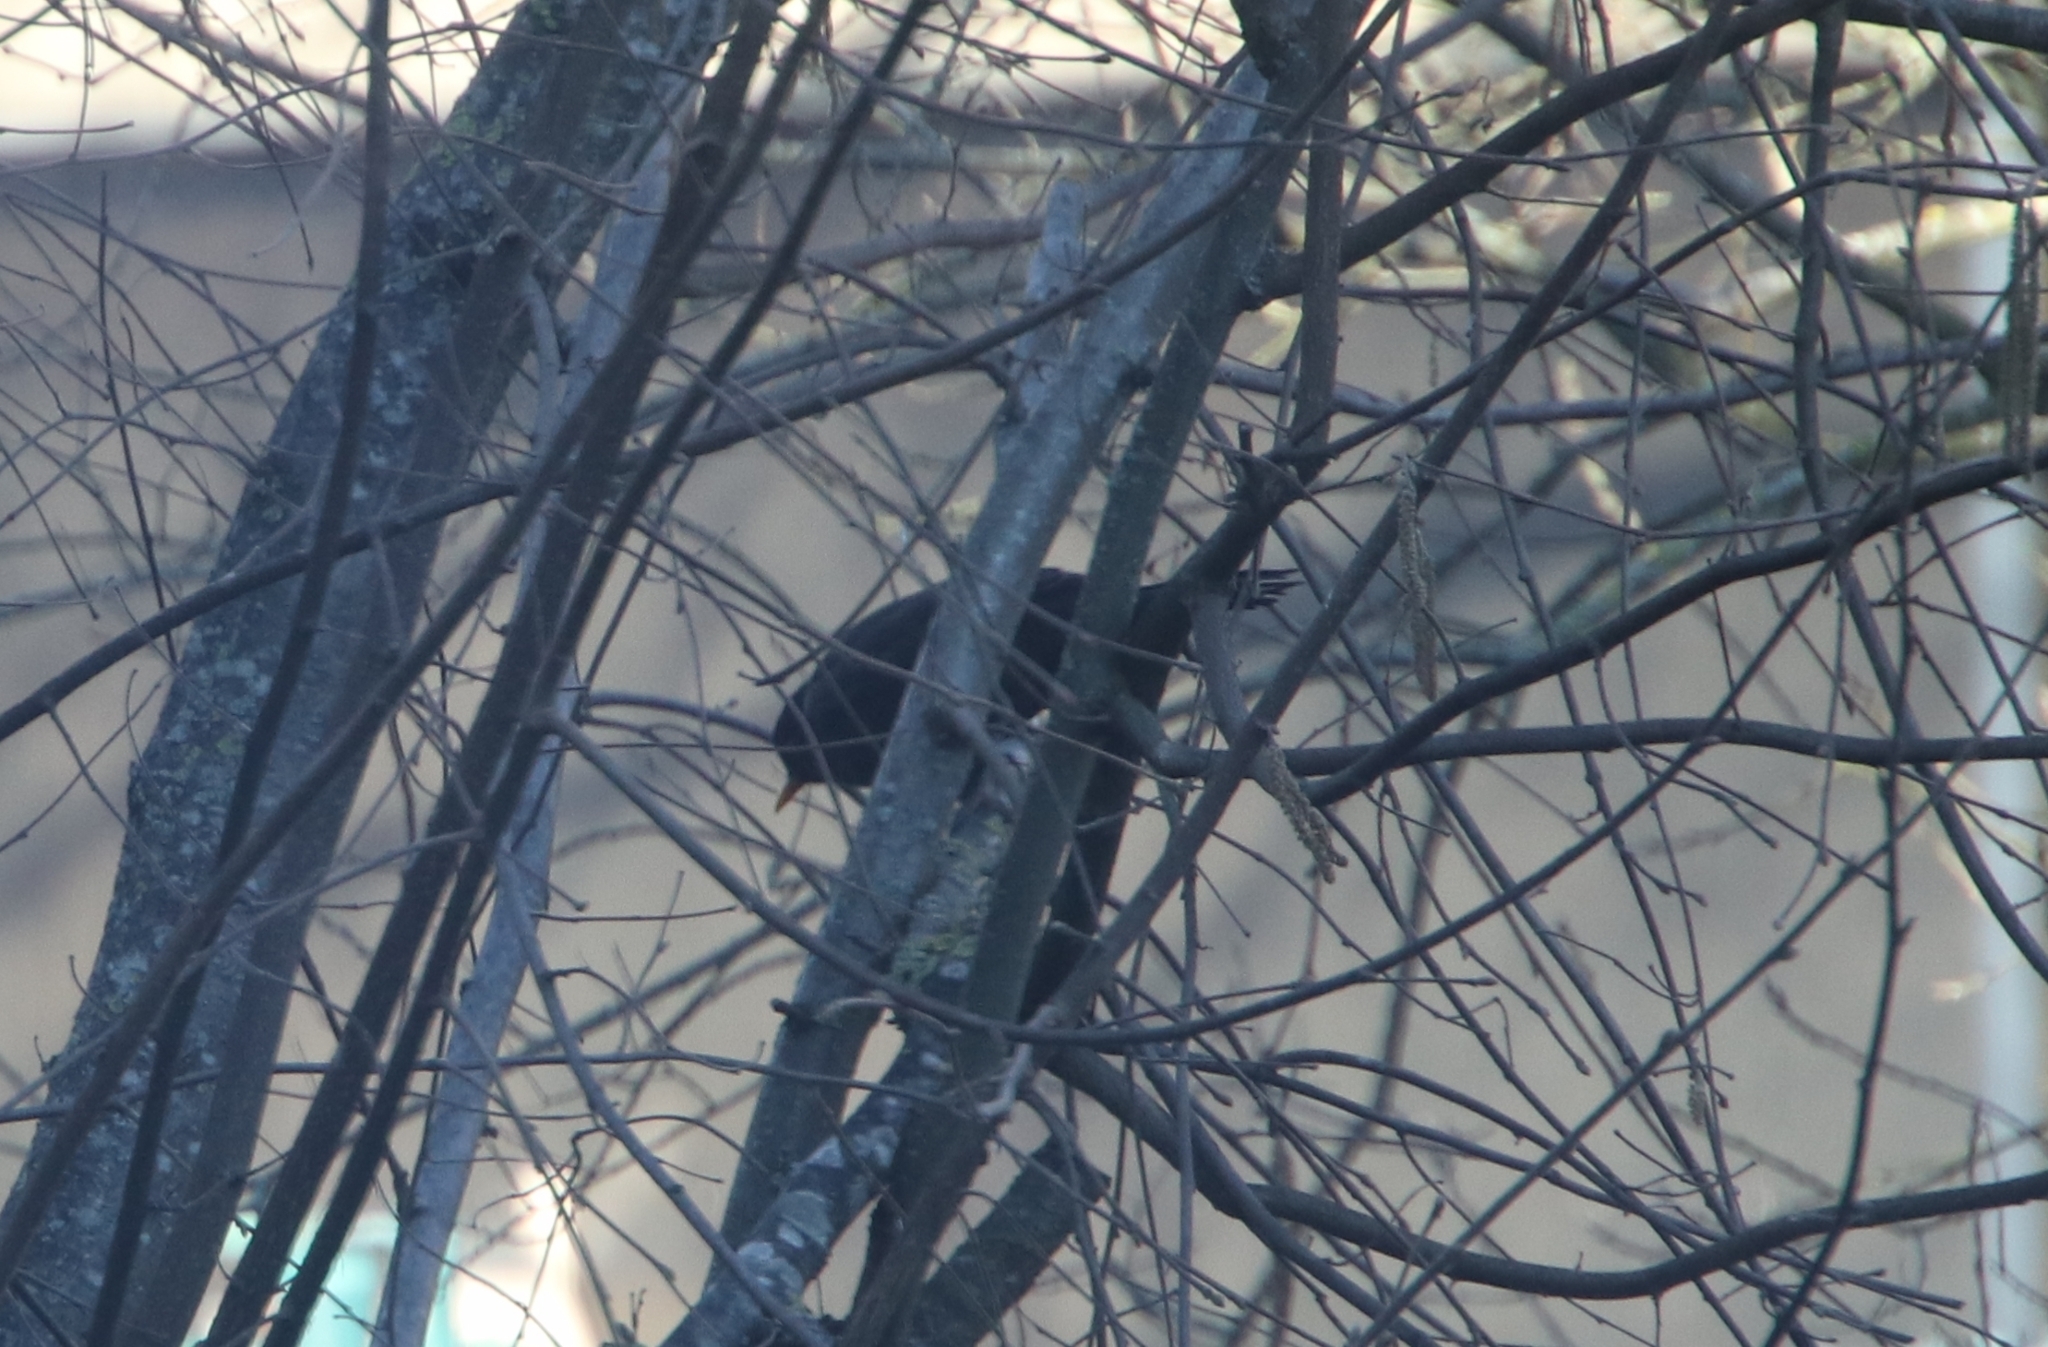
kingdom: Animalia
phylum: Chordata
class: Aves
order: Passeriformes
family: Turdidae
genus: Turdus
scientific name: Turdus merula
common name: Common blackbird
